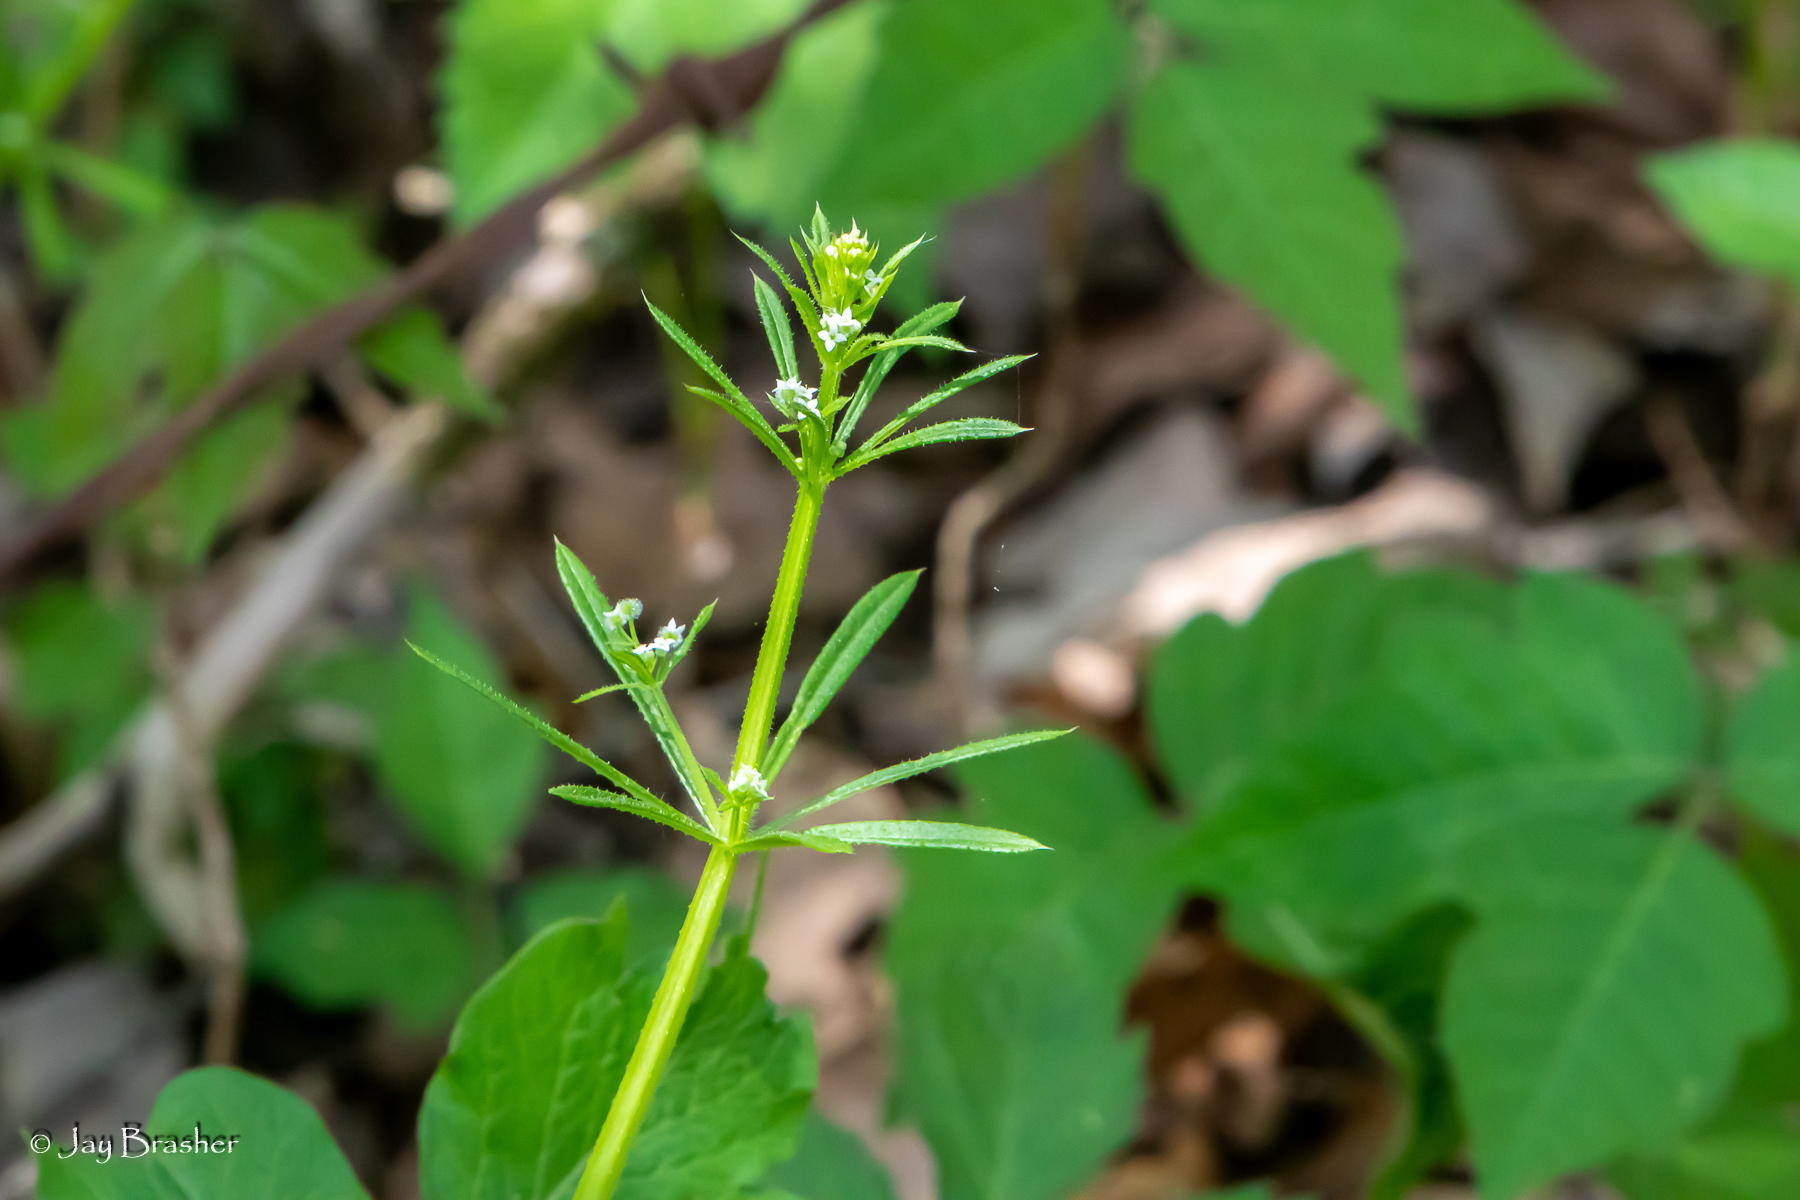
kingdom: Plantae
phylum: Tracheophyta
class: Magnoliopsida
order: Gentianales
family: Rubiaceae
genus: Galium
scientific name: Galium aparine
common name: Cleavers
